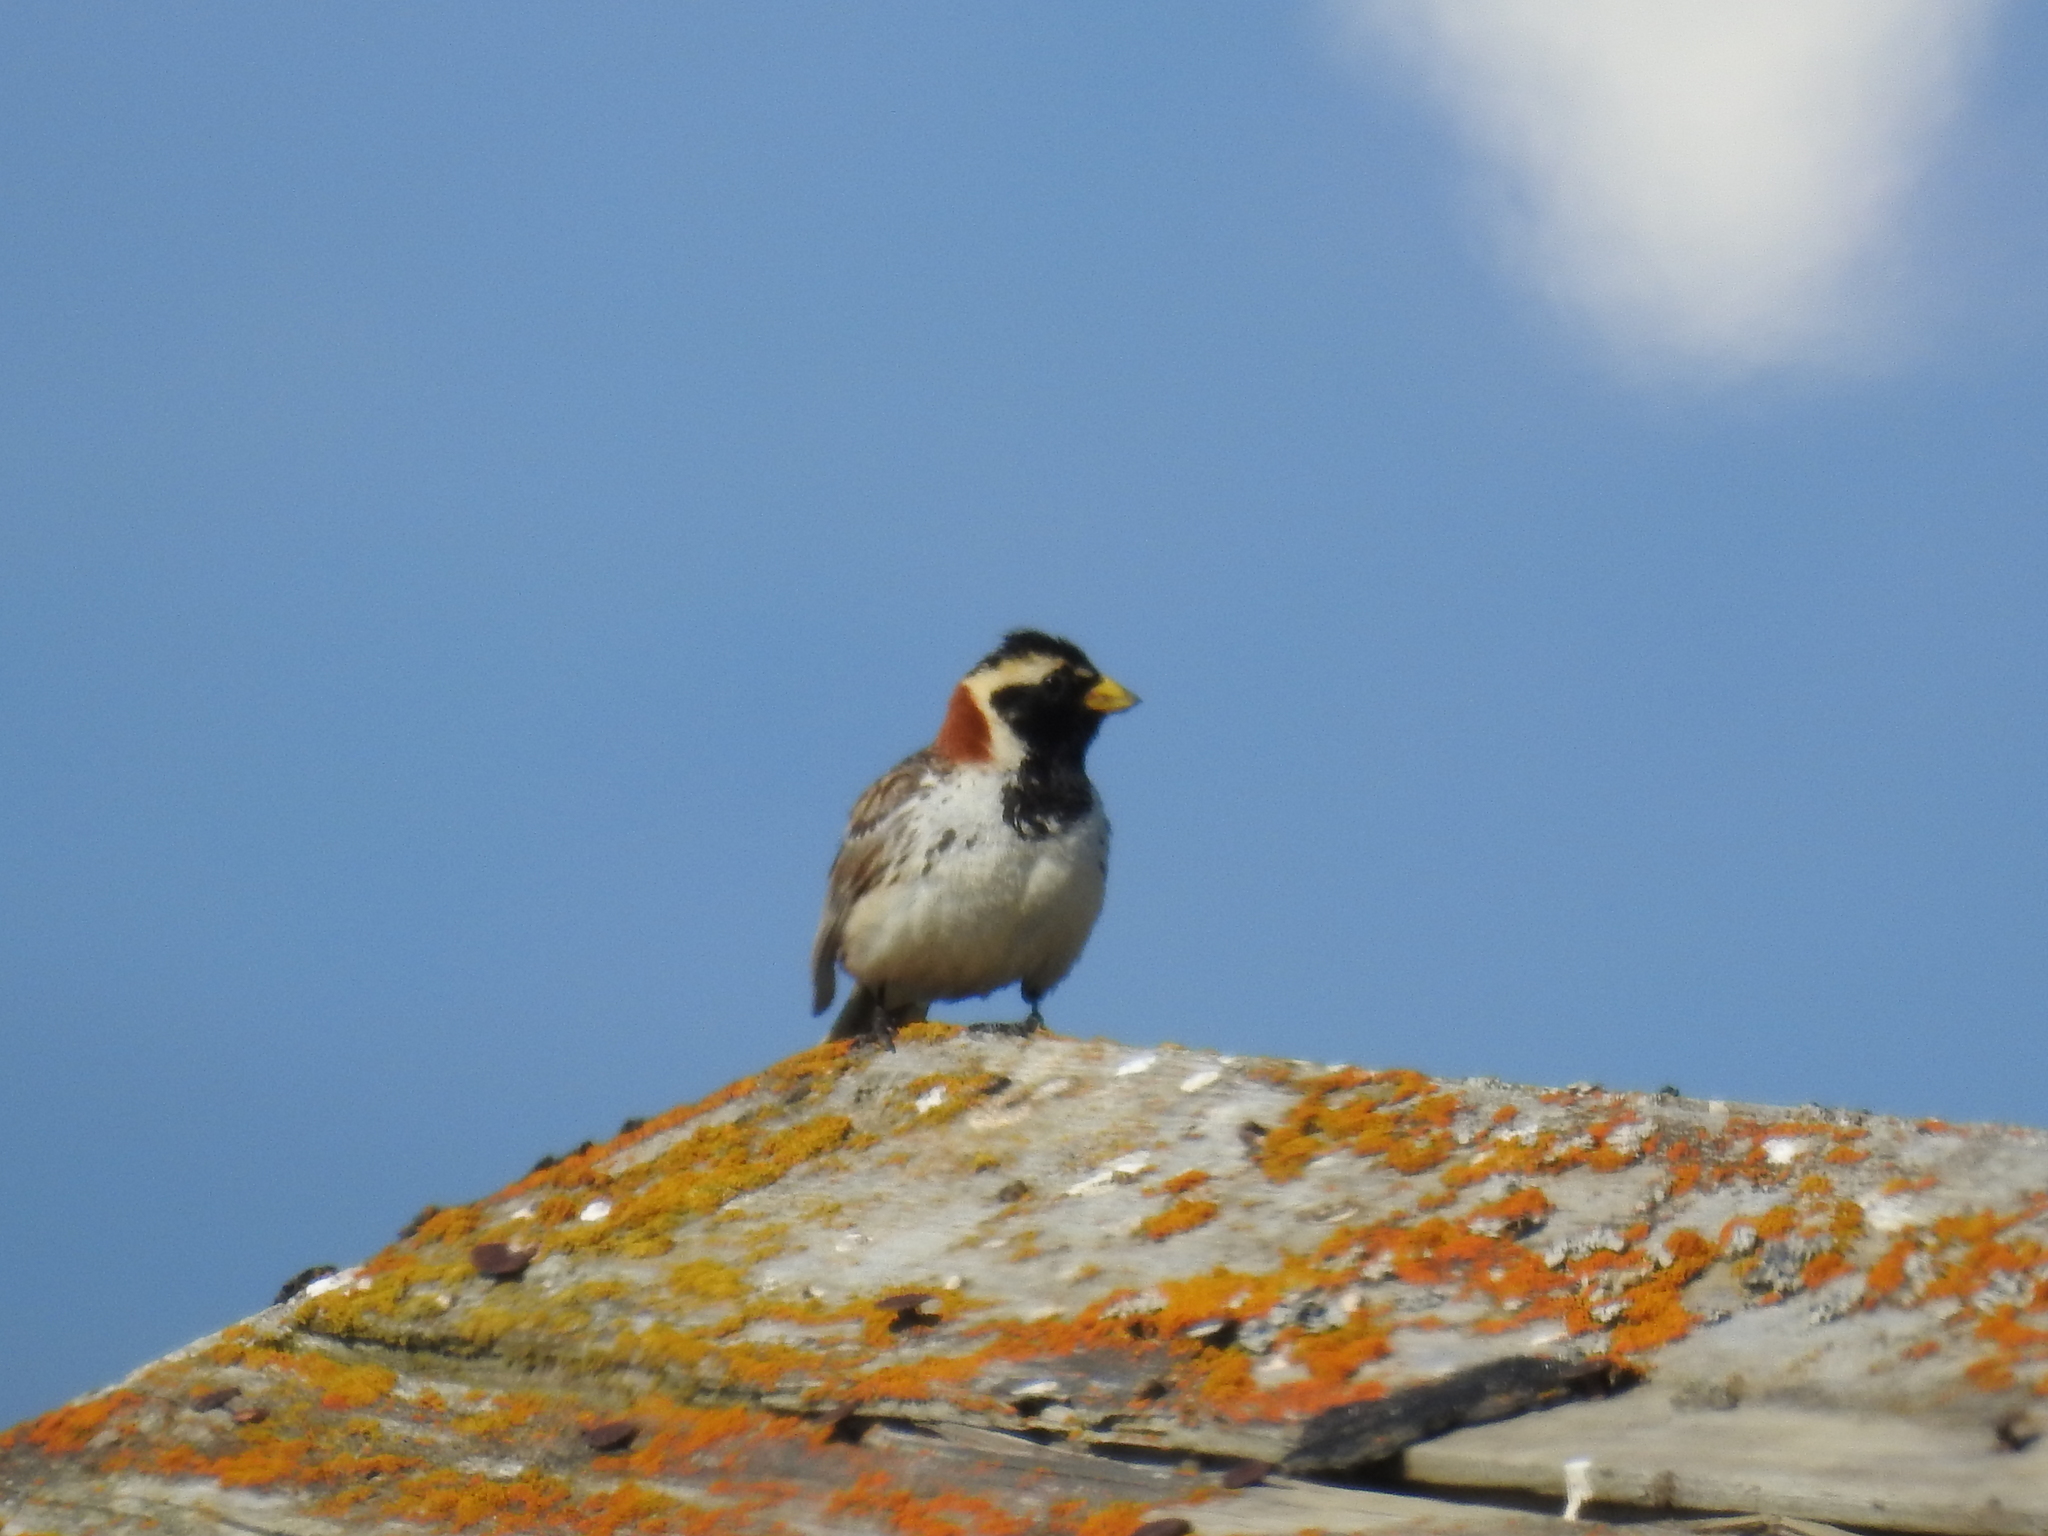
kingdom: Animalia
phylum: Chordata
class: Aves
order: Passeriformes
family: Calcariidae
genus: Calcarius
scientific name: Calcarius lapponicus
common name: Lapland longspur
